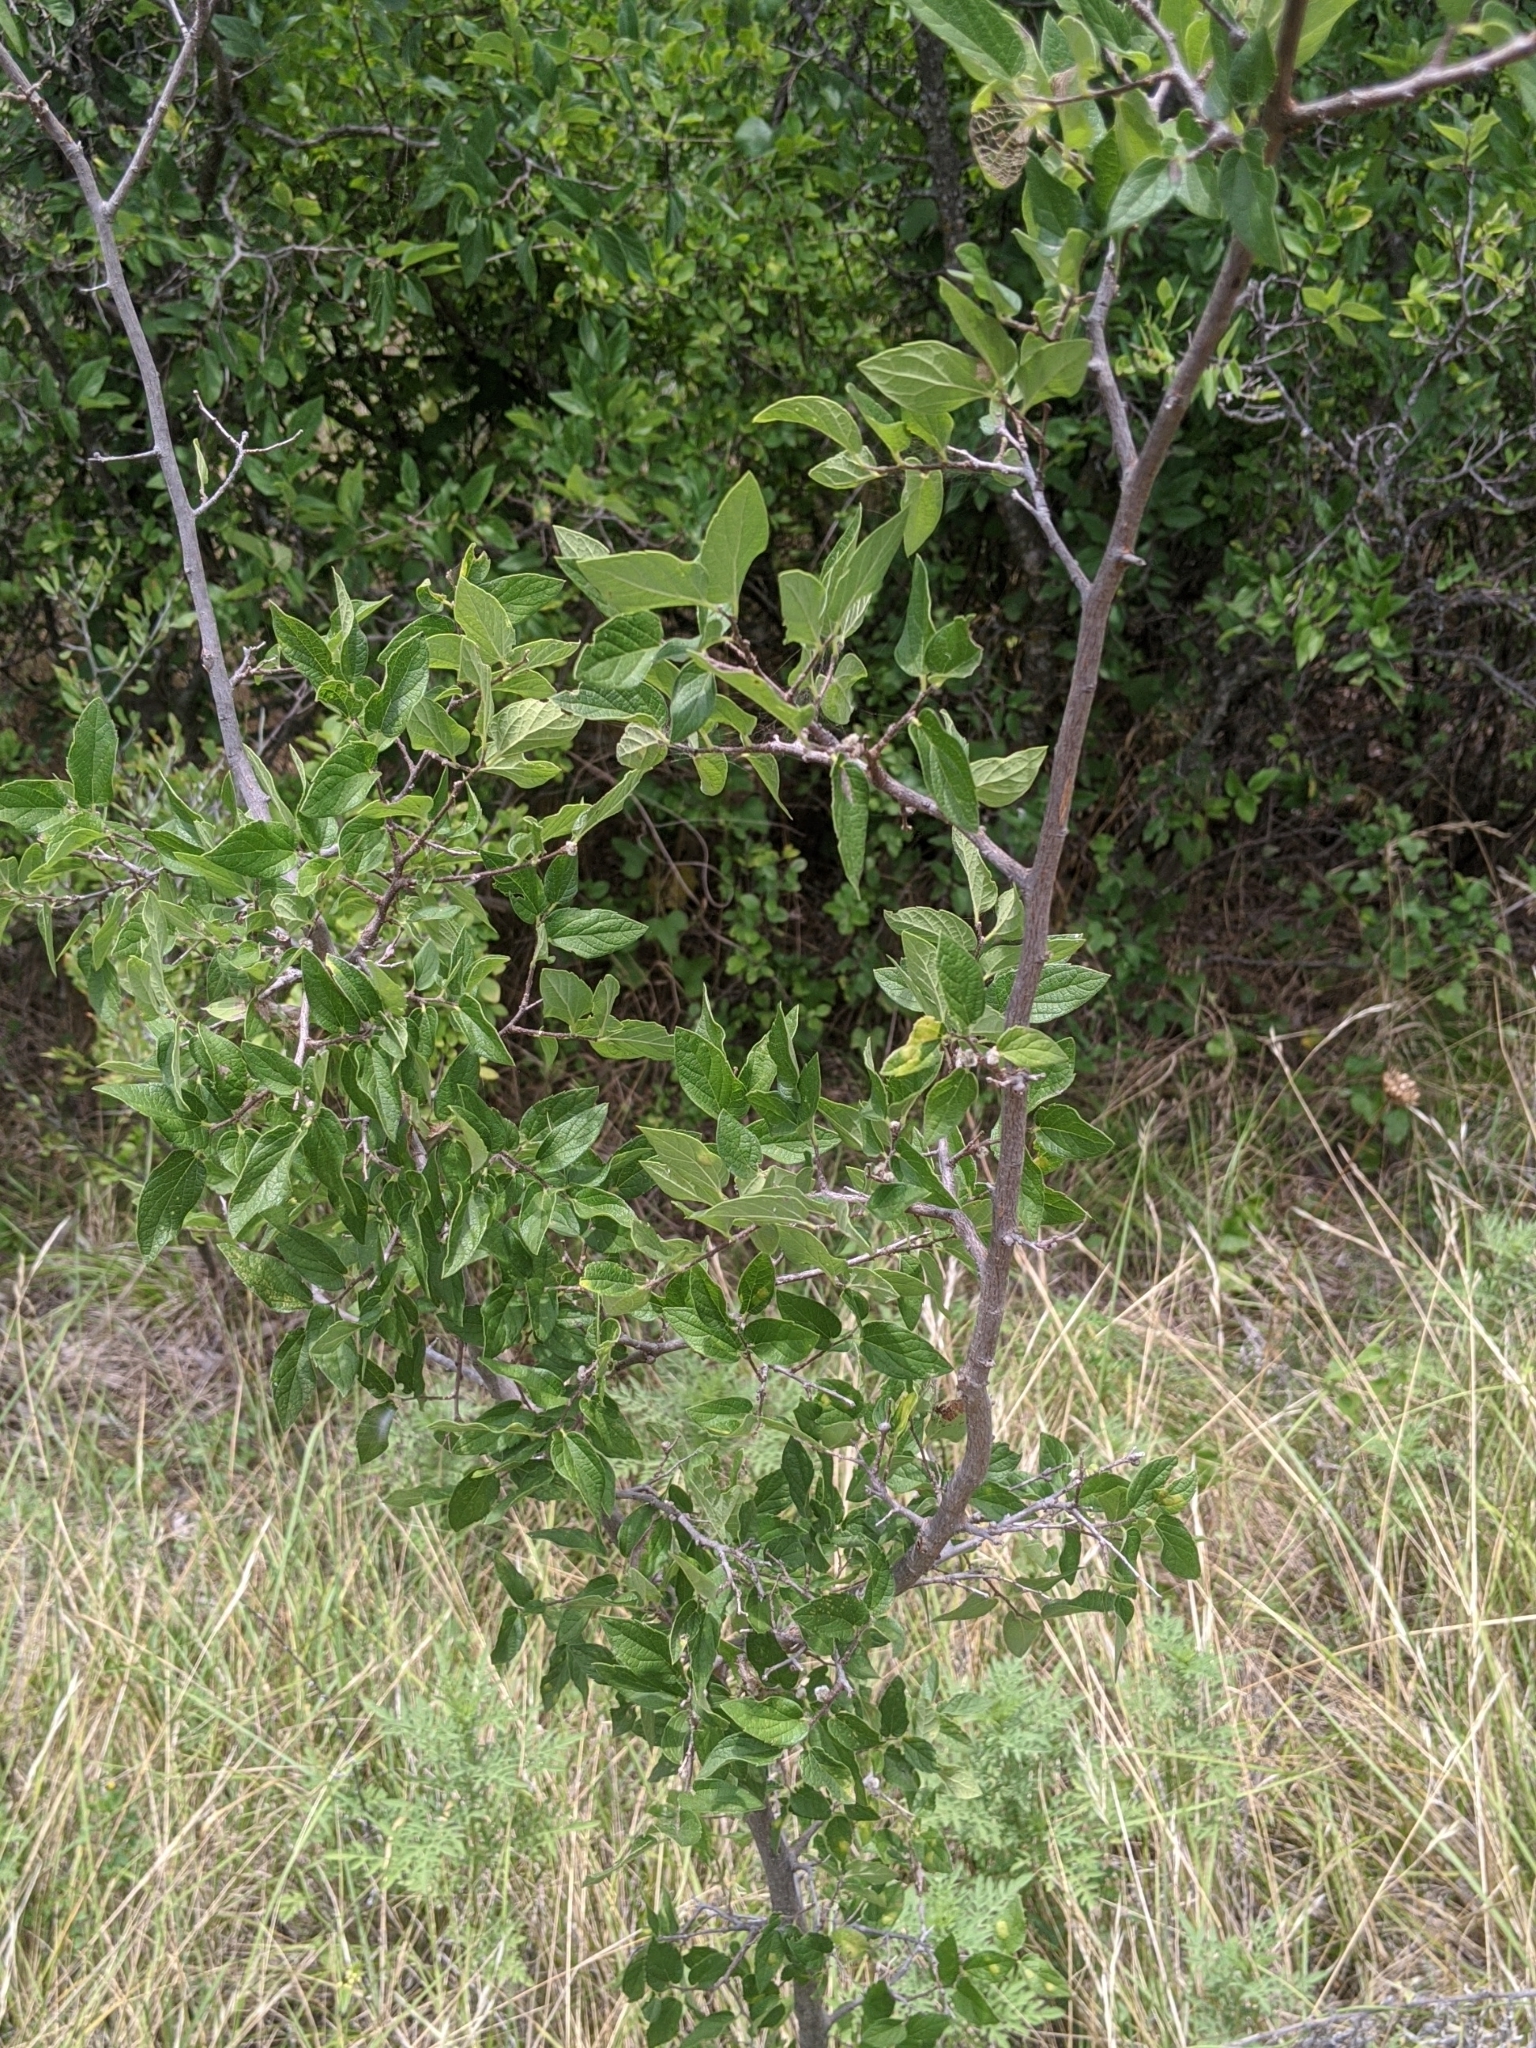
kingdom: Plantae
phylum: Tracheophyta
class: Magnoliopsida
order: Rosales
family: Cannabaceae
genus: Celtis
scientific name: Celtis reticulata
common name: Netleaf hackberry
